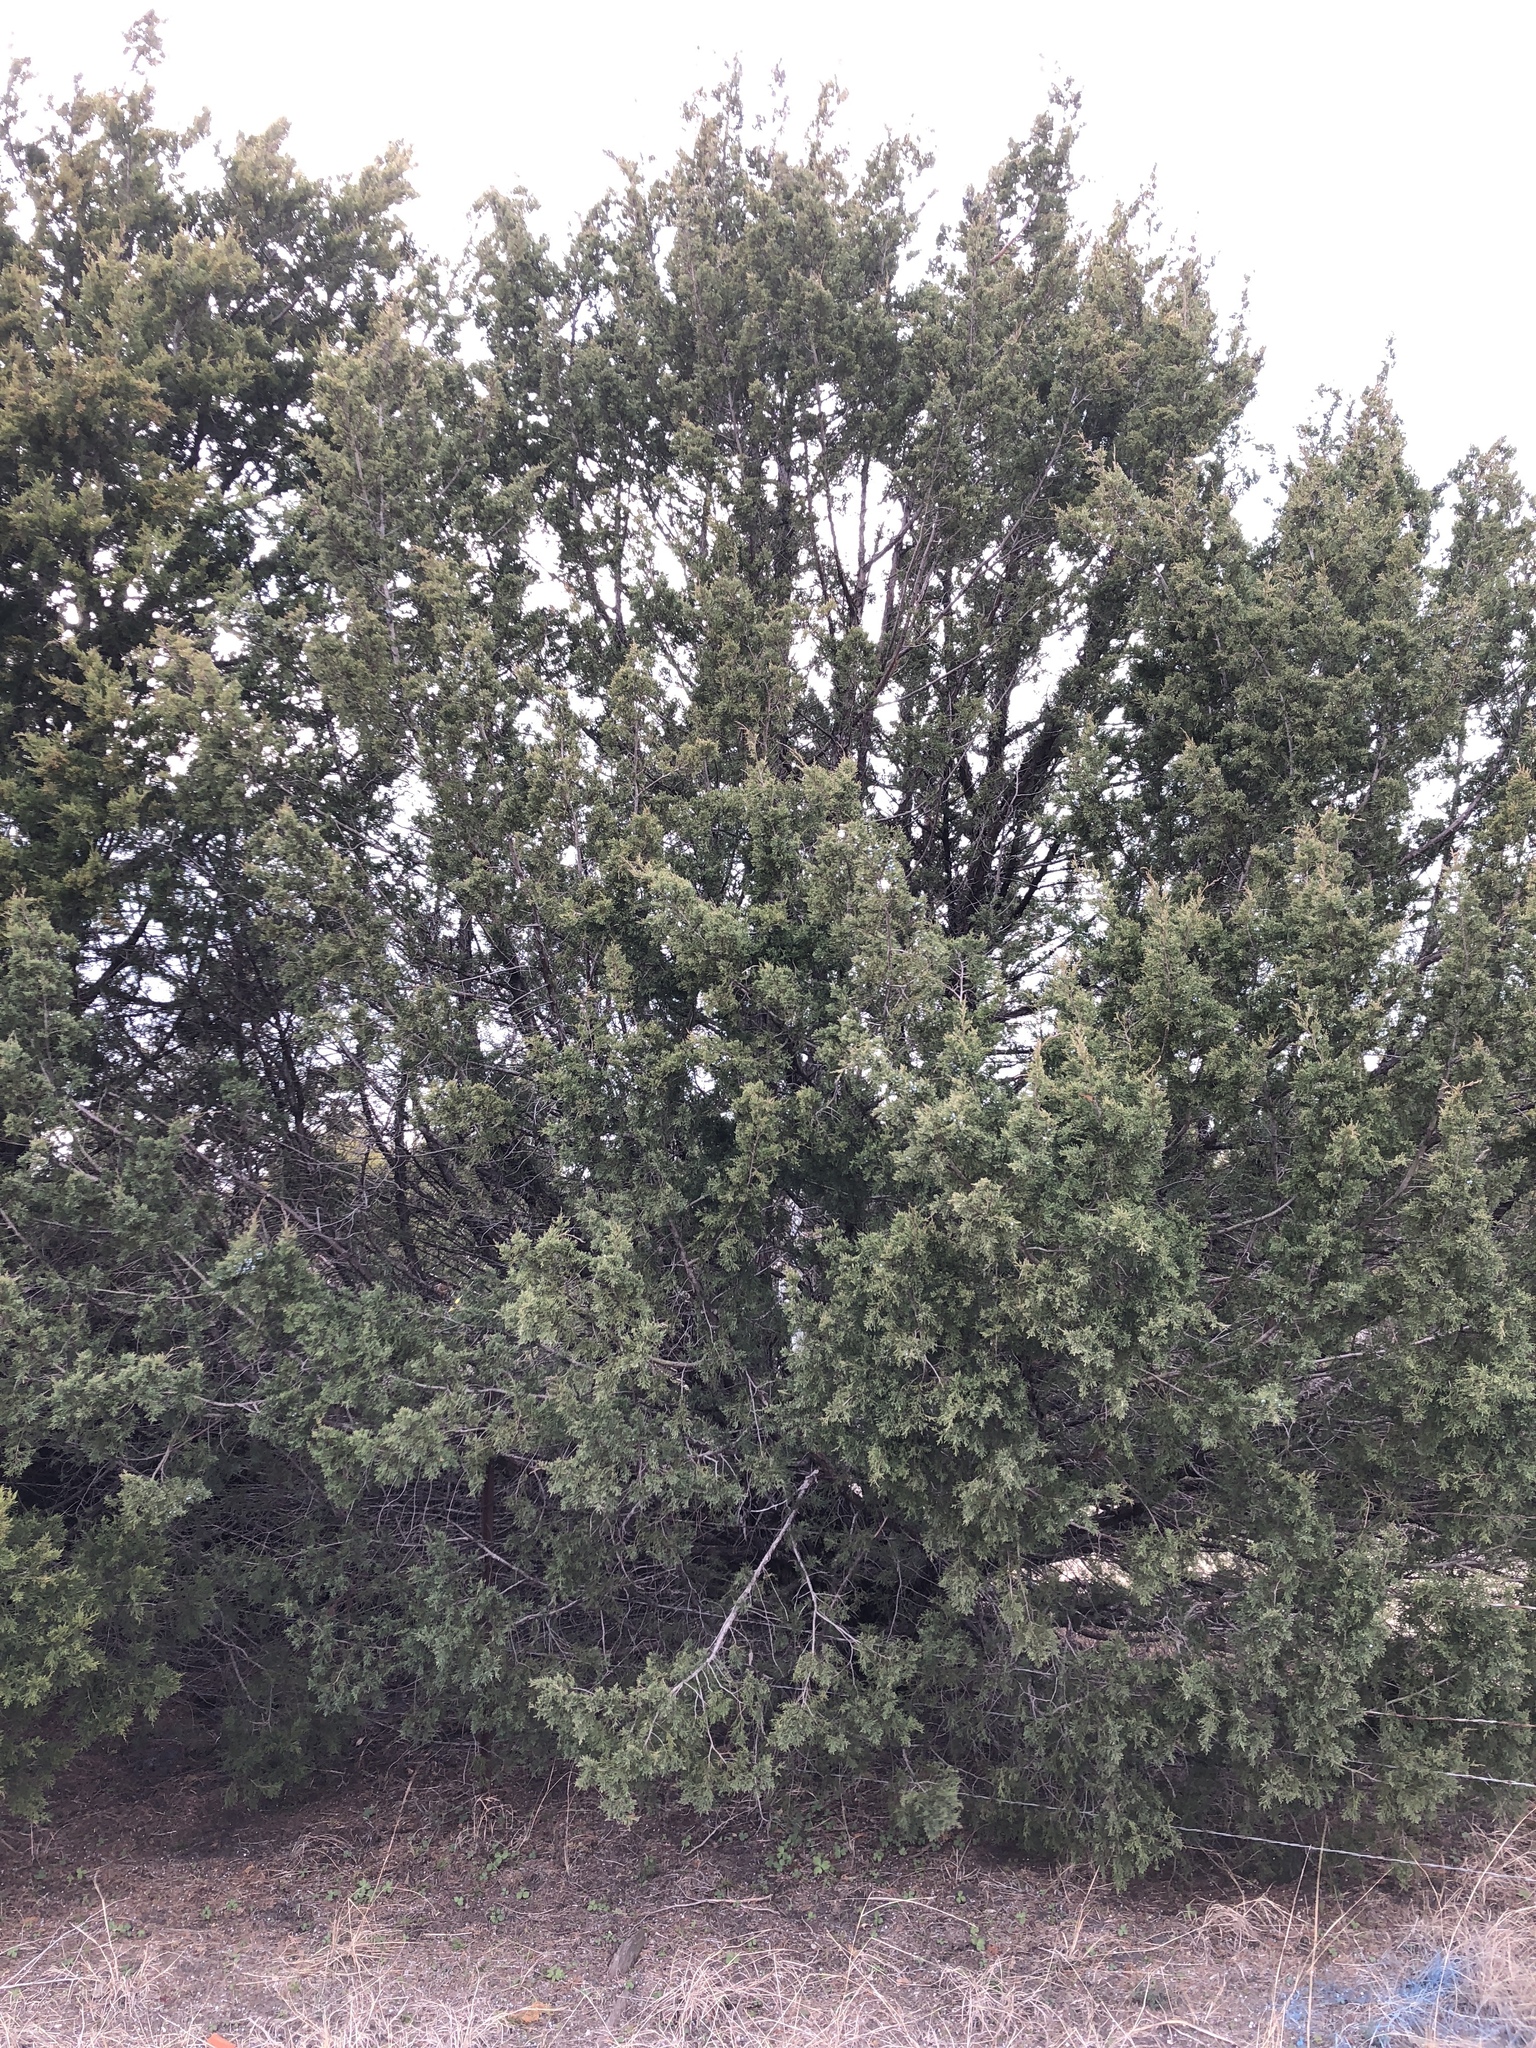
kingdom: Plantae
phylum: Tracheophyta
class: Pinopsida
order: Pinales
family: Cupressaceae
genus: Juniperus
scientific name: Juniperus virginiana
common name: Red juniper
